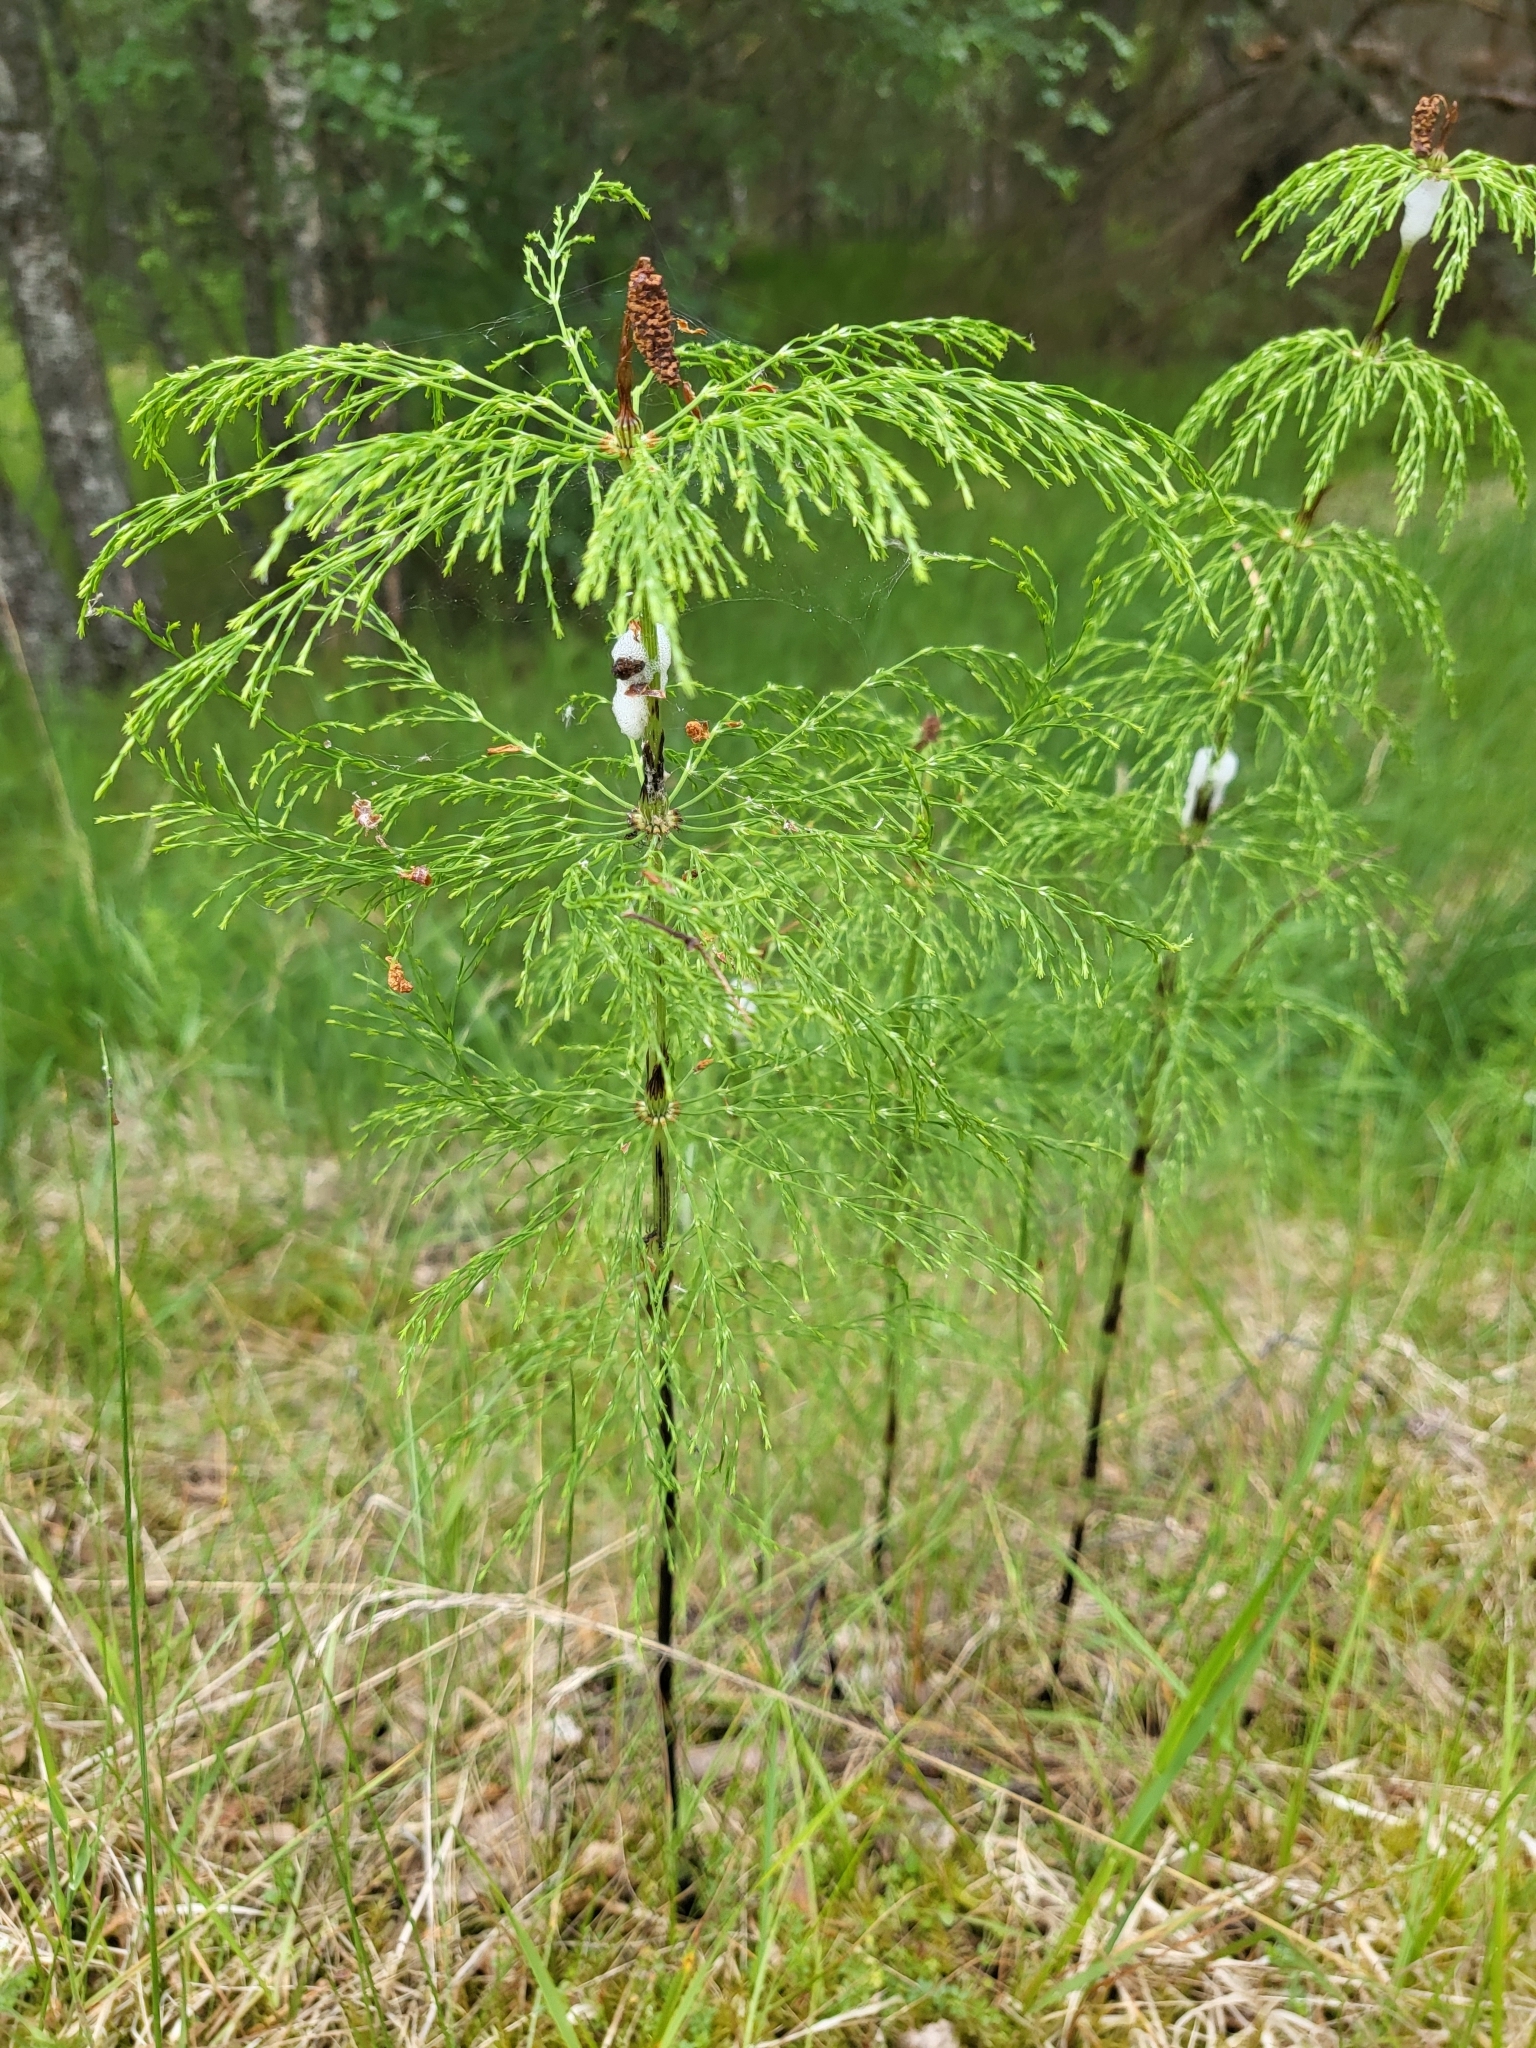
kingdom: Plantae
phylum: Tracheophyta
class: Polypodiopsida
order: Equisetales
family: Equisetaceae
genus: Equisetum
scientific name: Equisetum sylvaticum
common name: Wood horsetail
